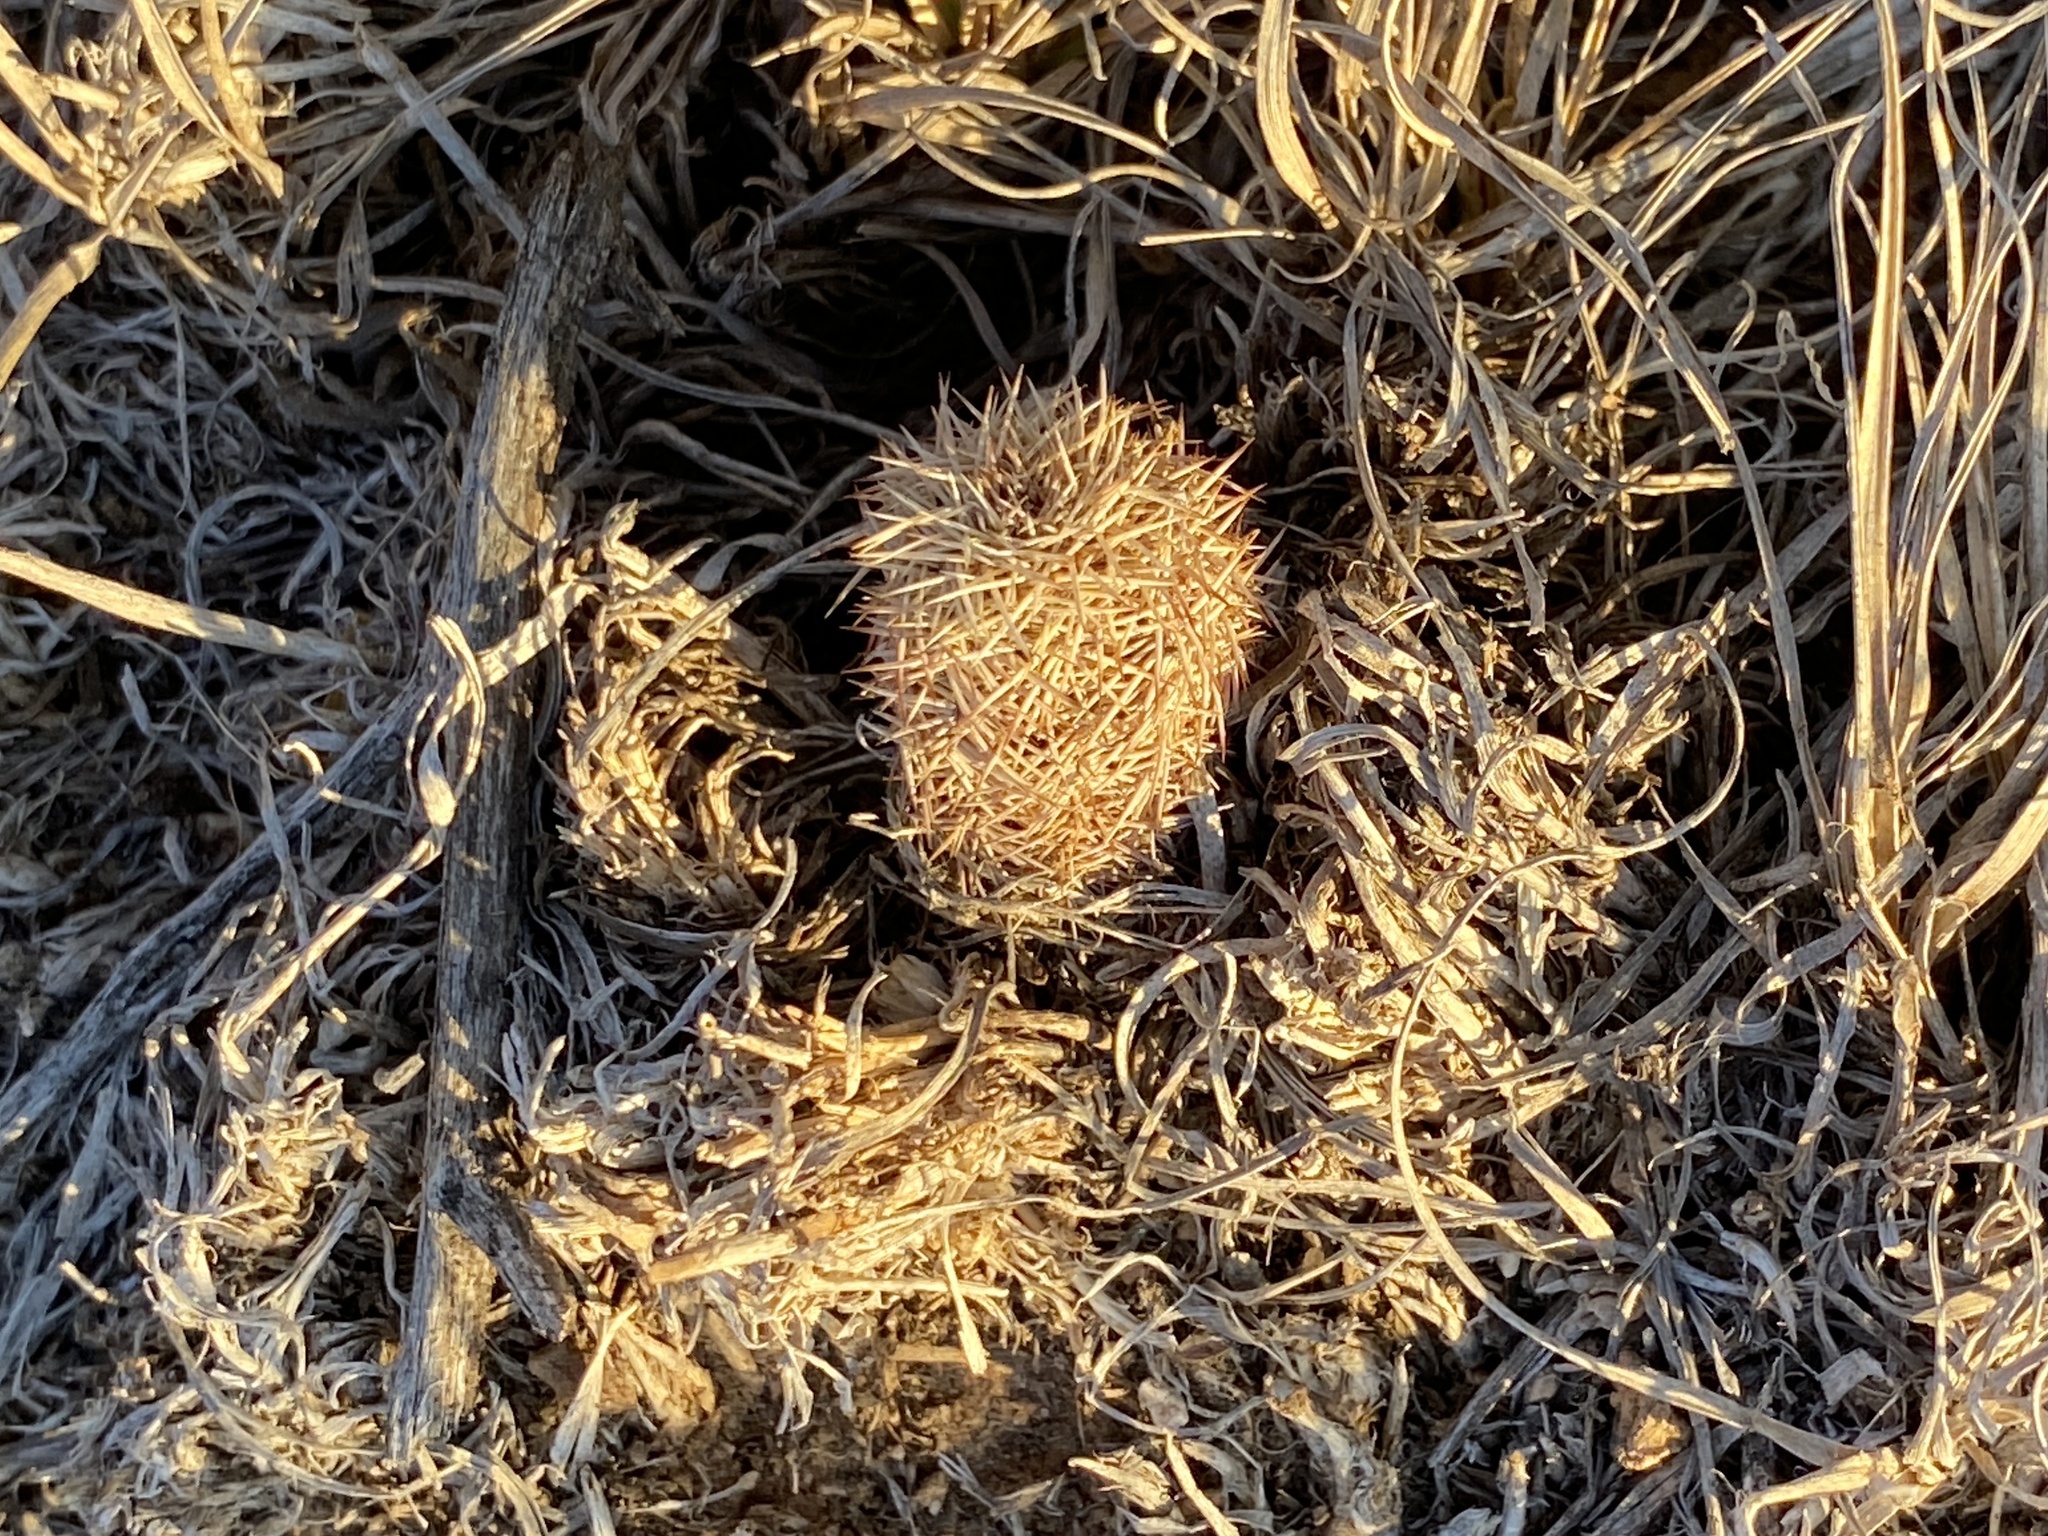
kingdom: Plantae
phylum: Tracheophyta
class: Magnoliopsida
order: Caryophyllales
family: Cactaceae
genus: Echinocereus
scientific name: Echinocereus reichenbachii
